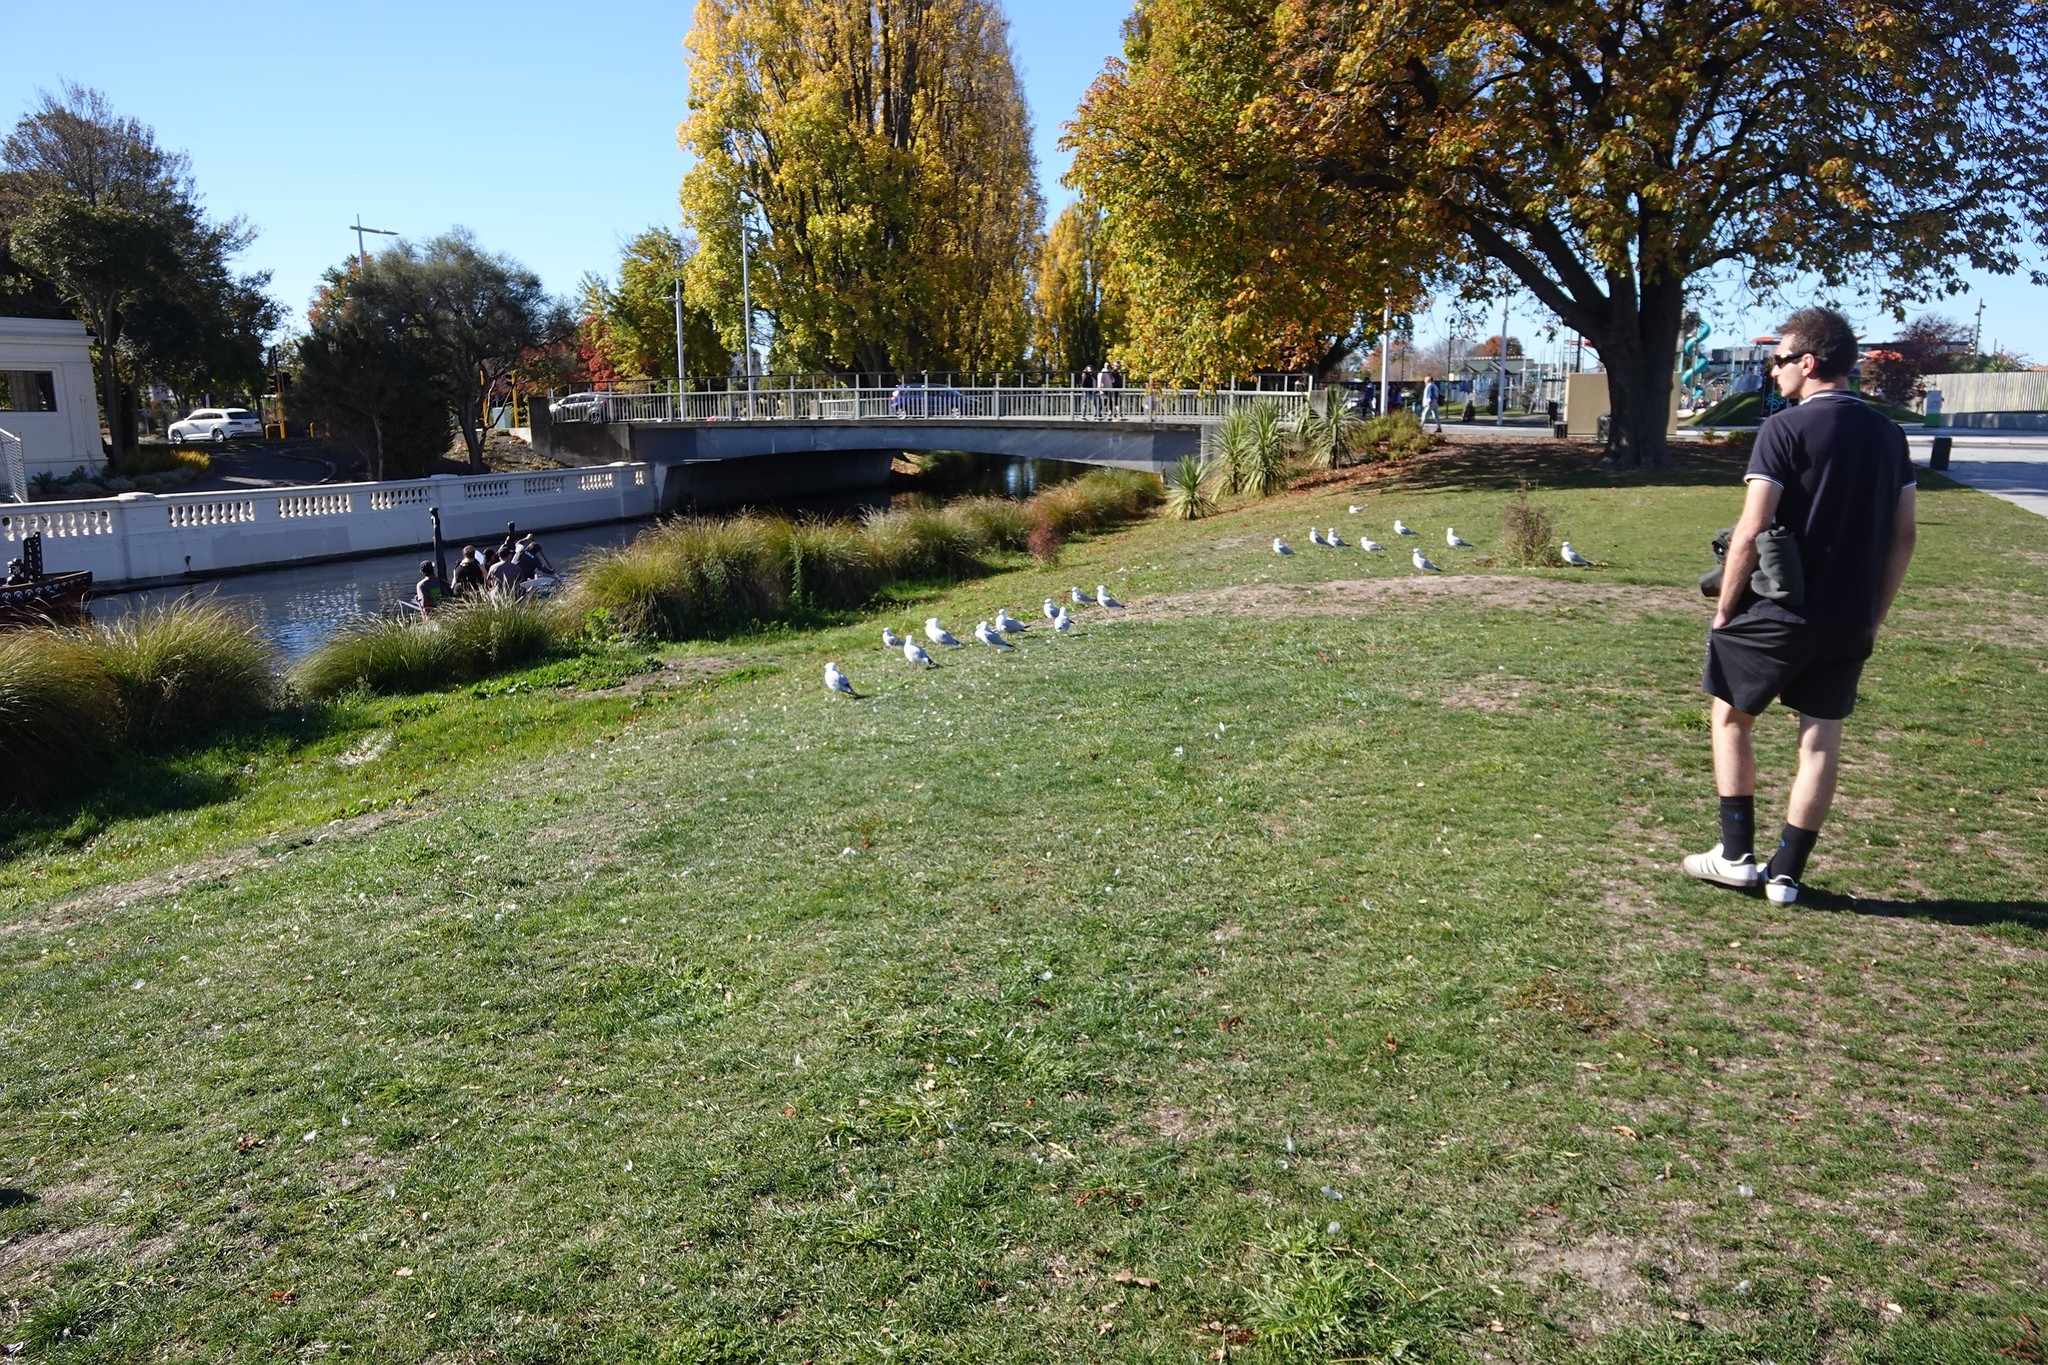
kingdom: Animalia
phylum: Chordata
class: Aves
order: Charadriiformes
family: Laridae
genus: Chroicocephalus
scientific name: Chroicocephalus novaehollandiae
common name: Silver gull
